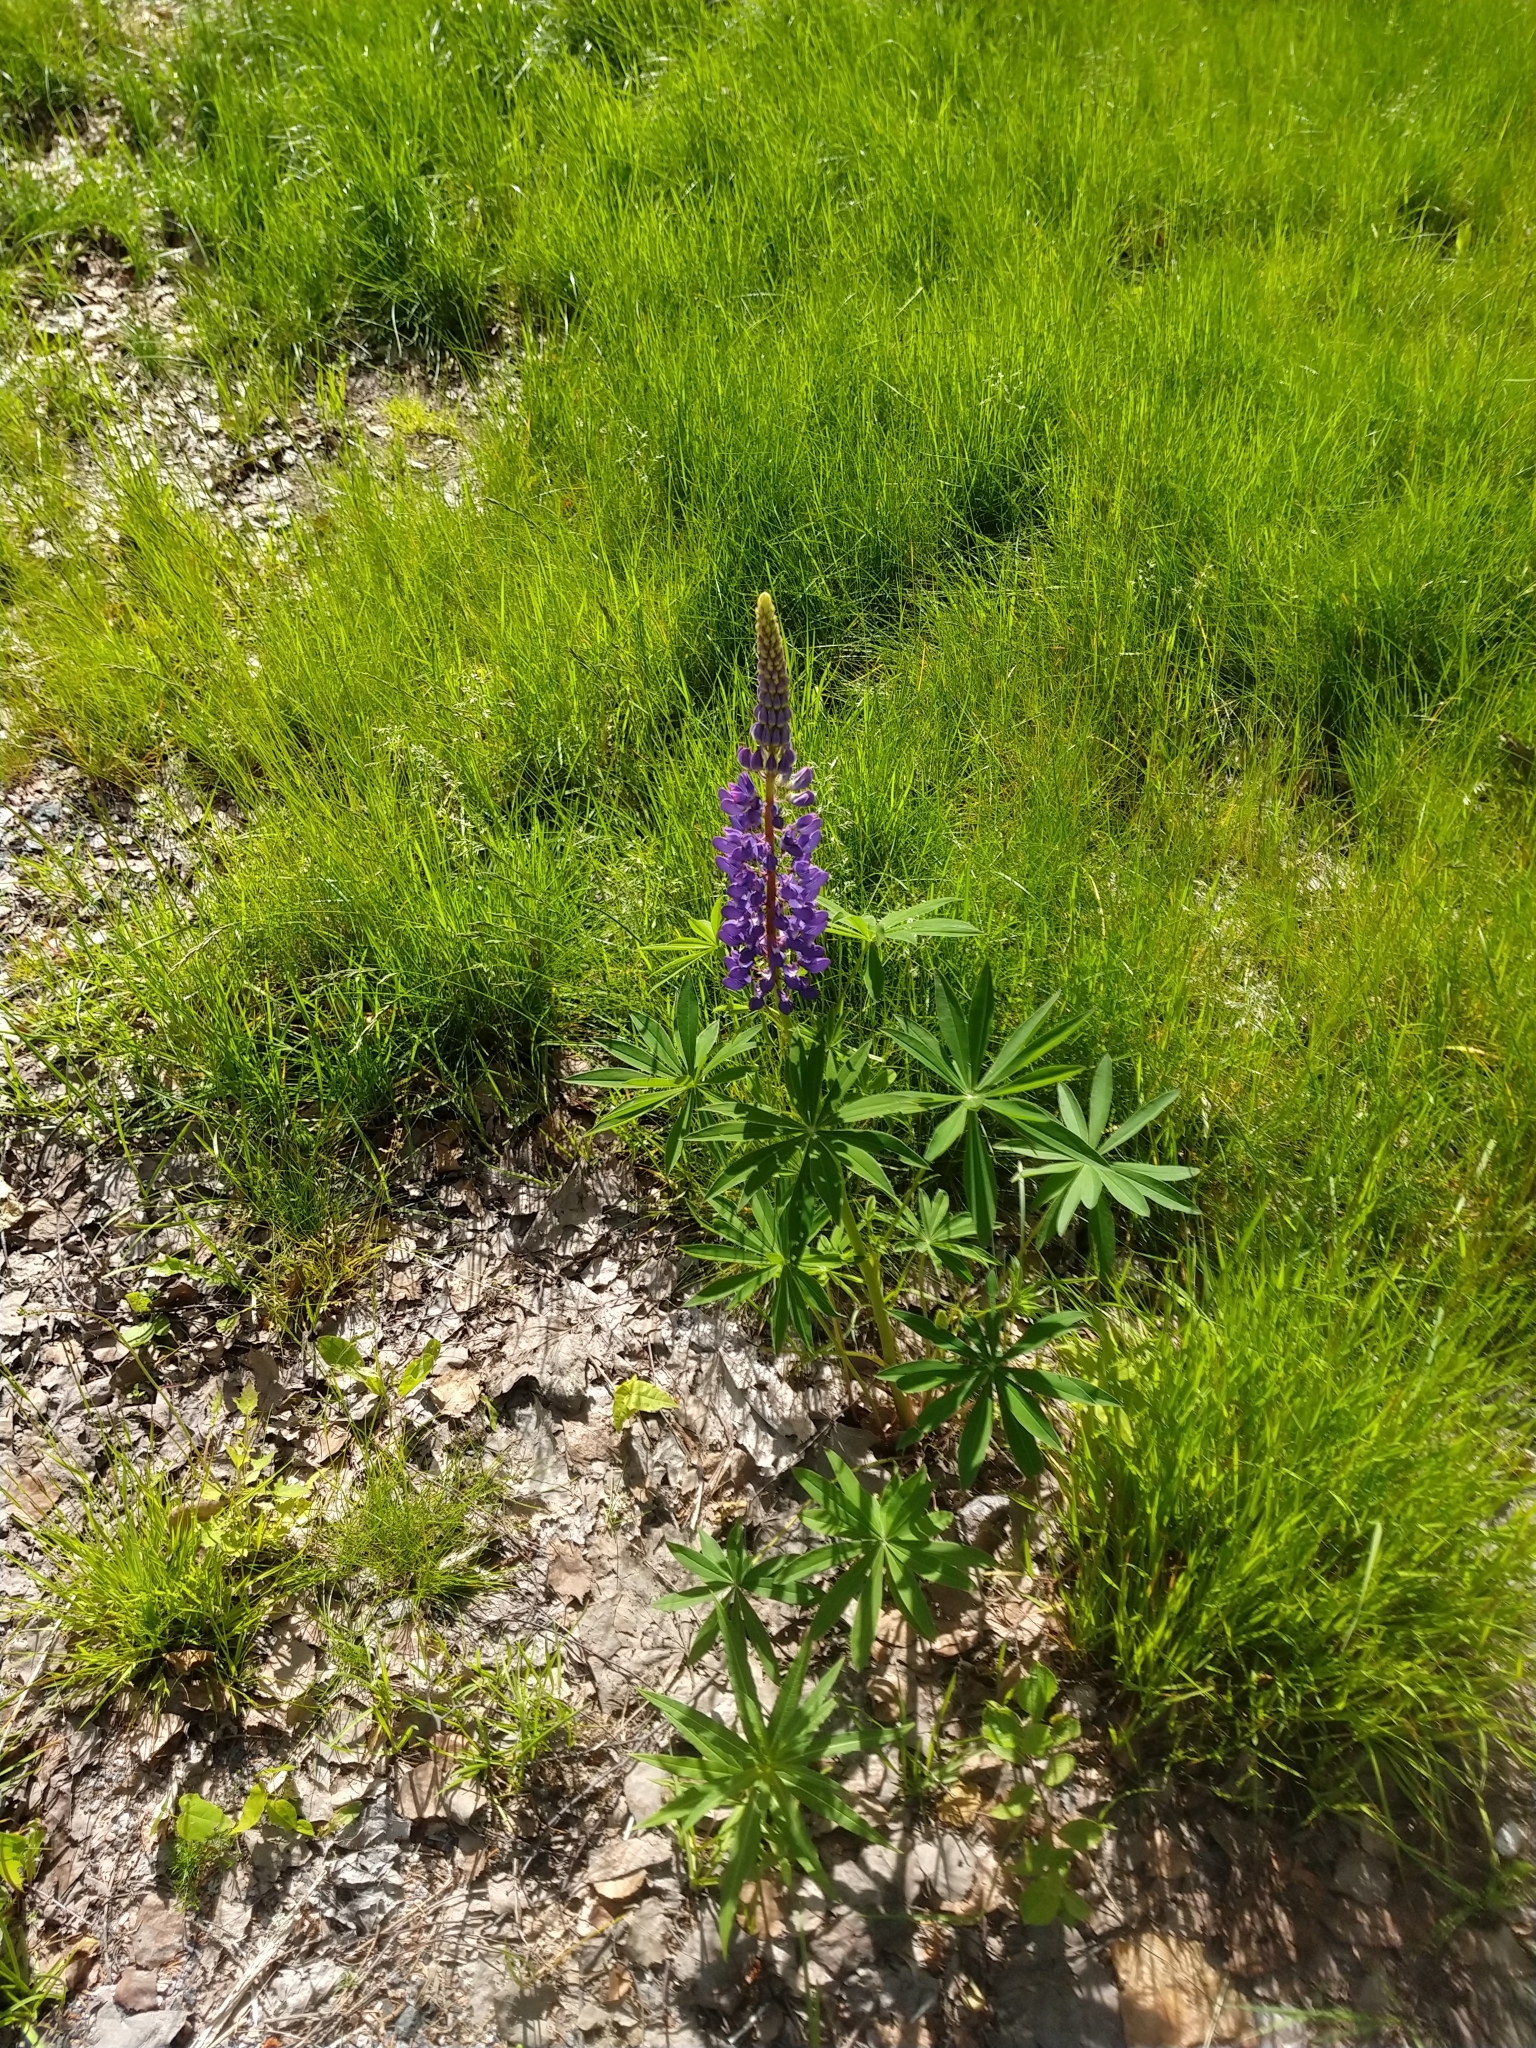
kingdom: Plantae
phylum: Tracheophyta
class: Magnoliopsida
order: Fabales
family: Fabaceae
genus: Lupinus
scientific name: Lupinus polyphyllus
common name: Garden lupin
